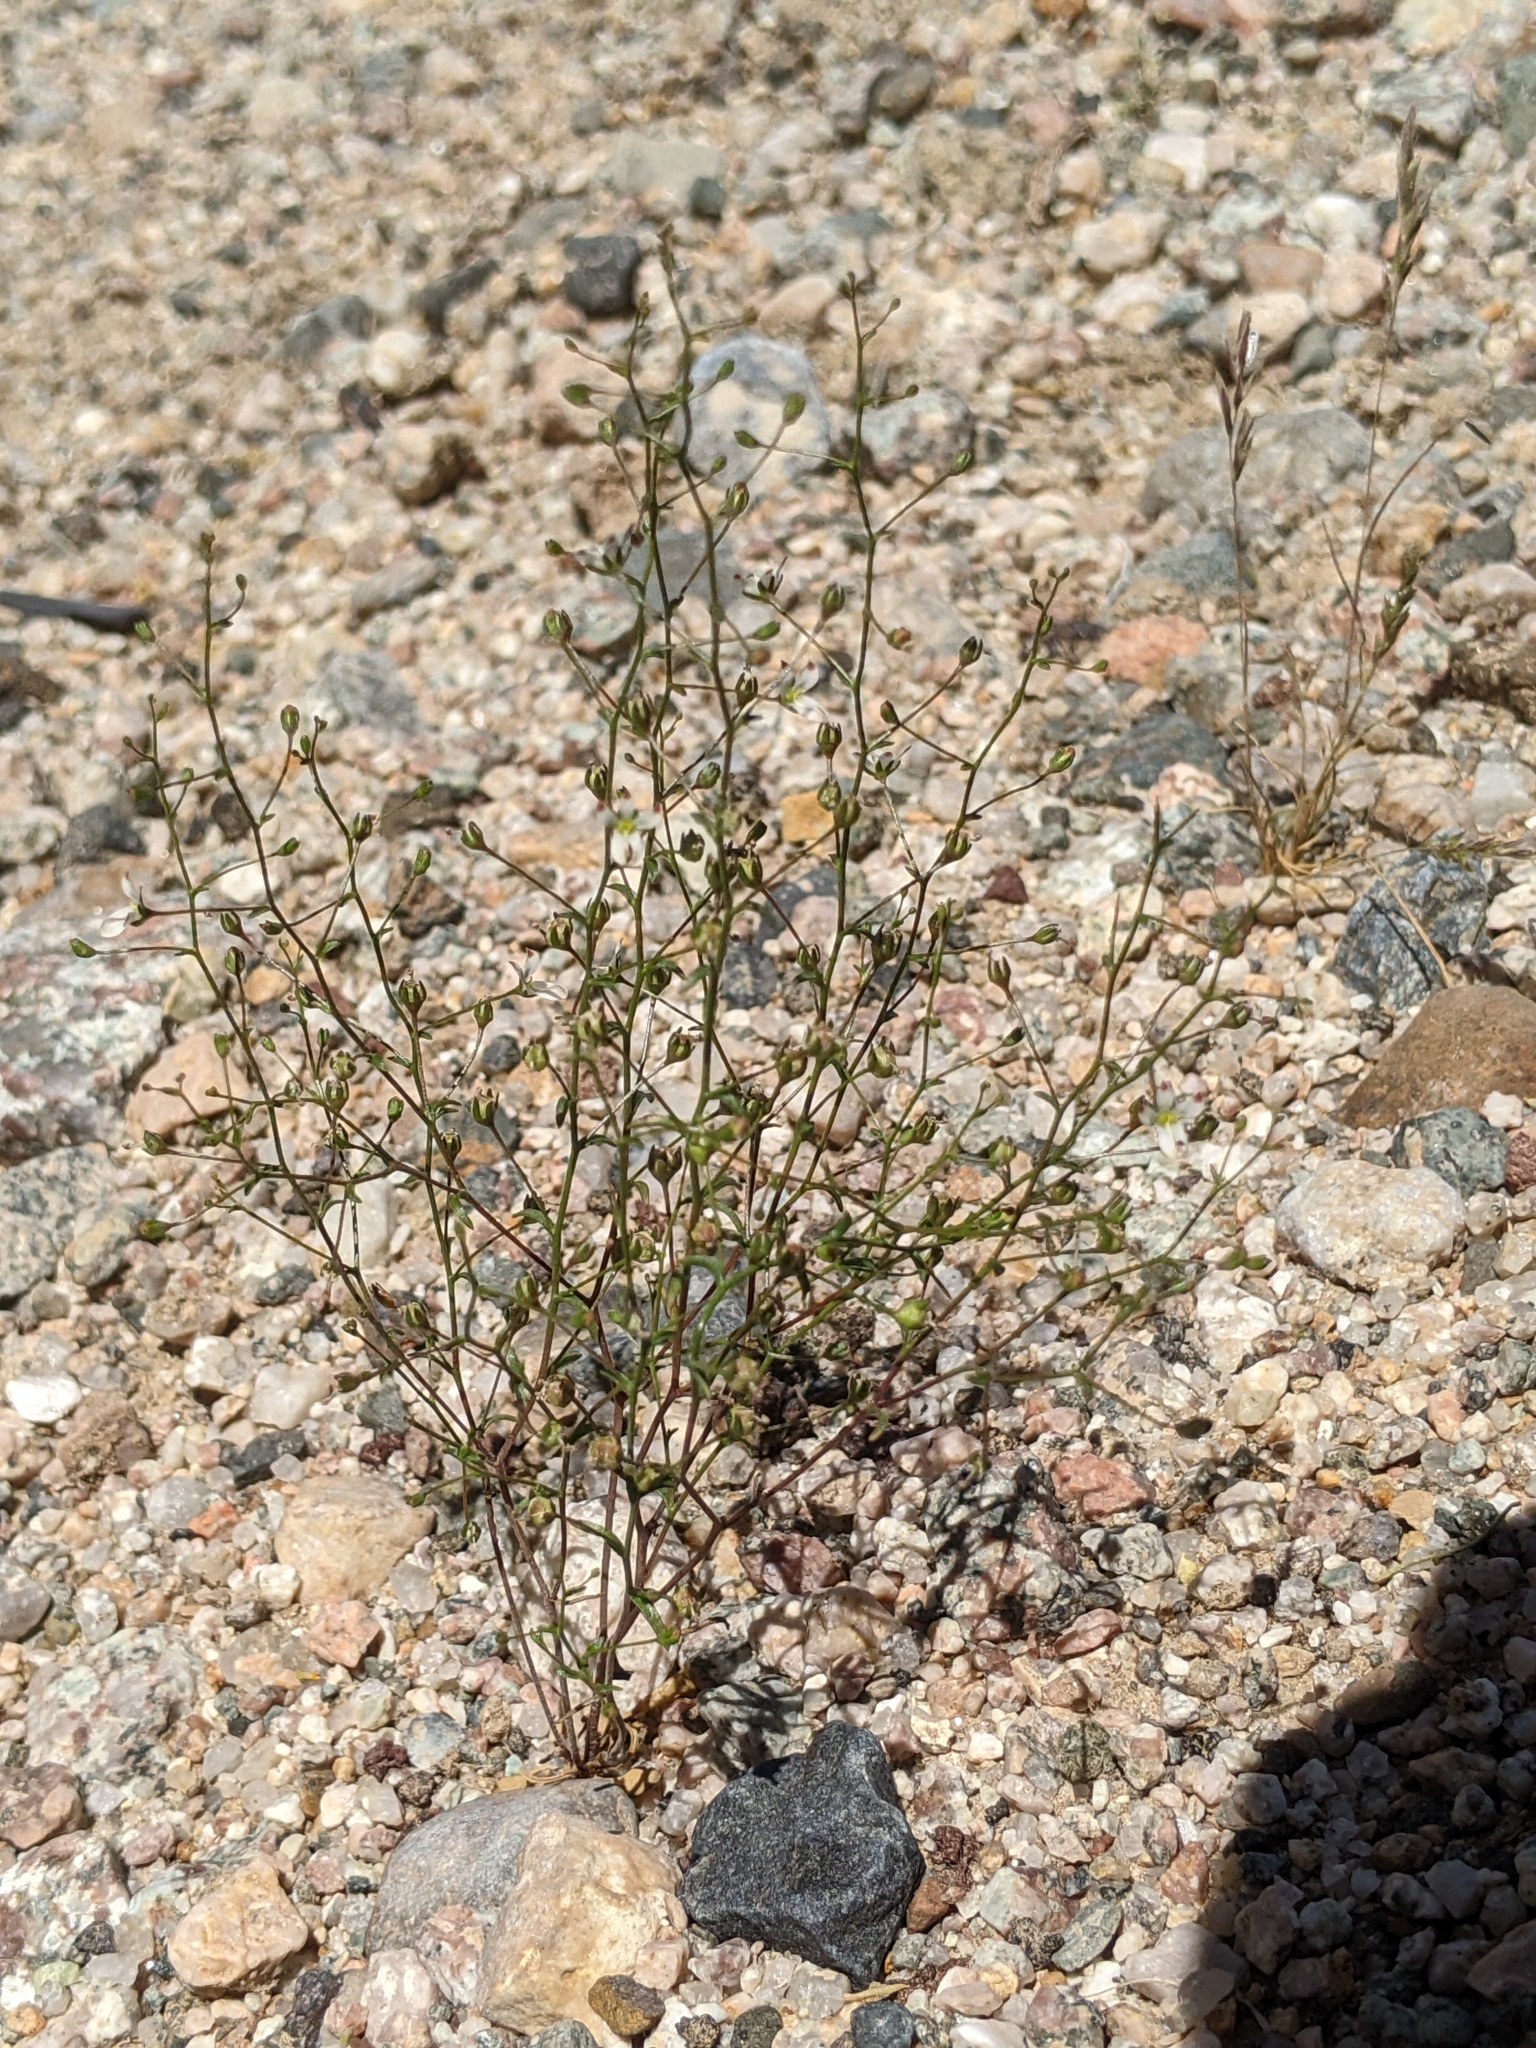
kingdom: Plantae
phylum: Tracheophyta
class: Magnoliopsida
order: Asterales
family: Campanulaceae
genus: Nemacladus
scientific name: Nemacladus orientalis
